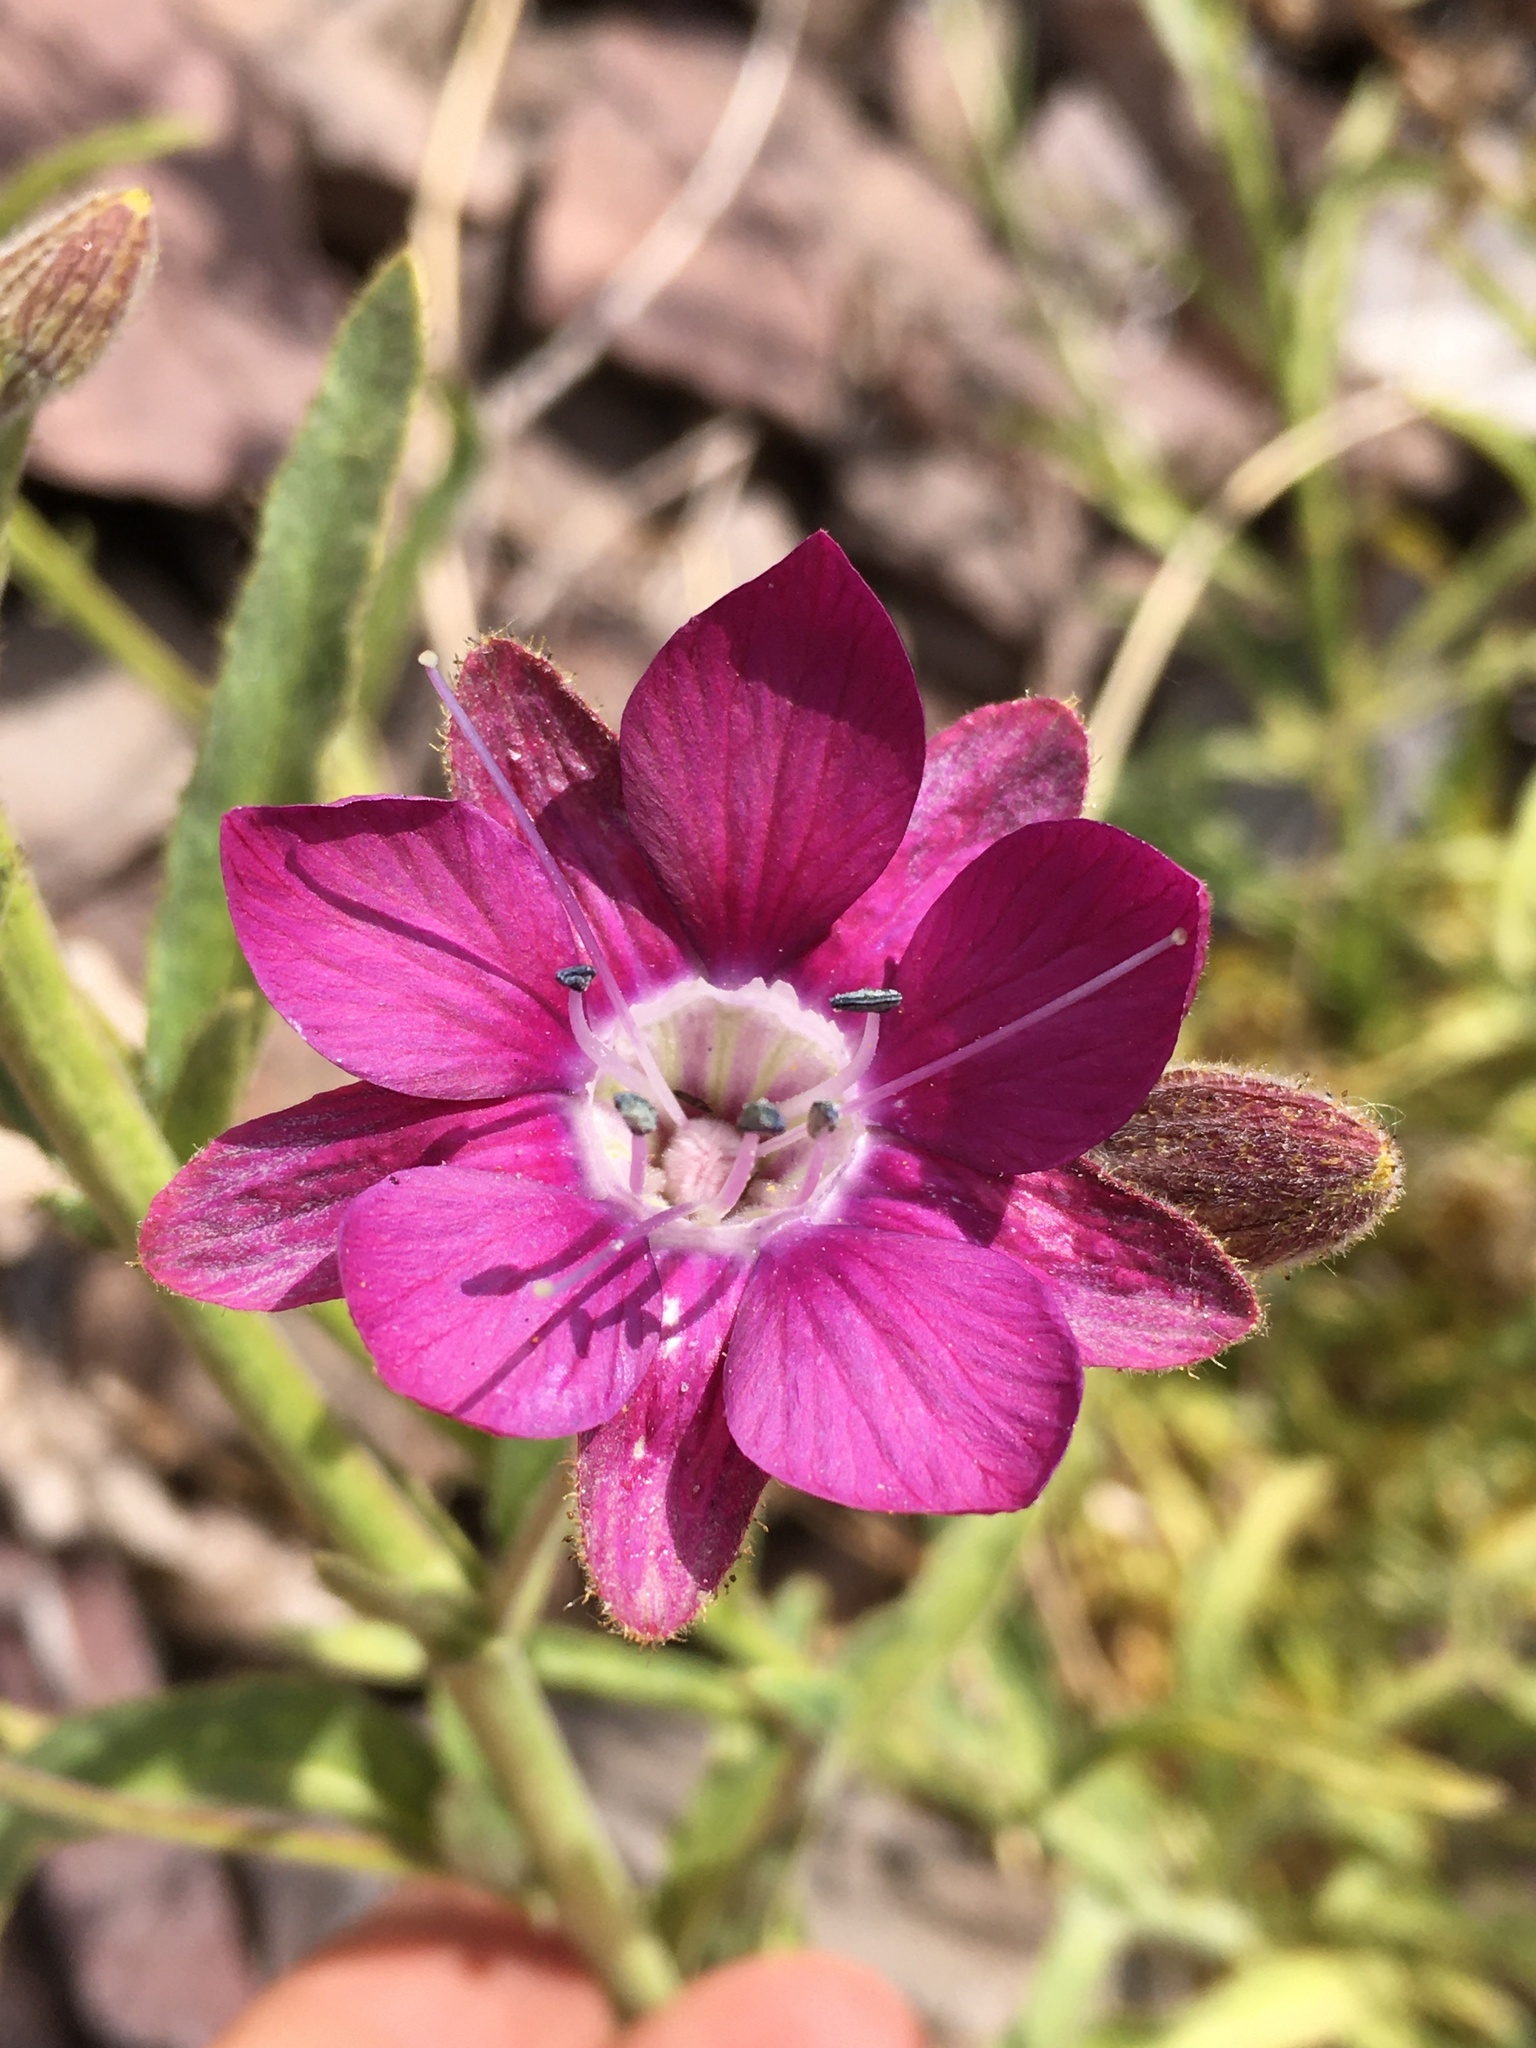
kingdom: Plantae
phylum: Tracheophyta
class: Magnoliopsida
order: Malpighiales
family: Malesherbiaceae
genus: Malesherbia
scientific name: Malesherbia linearifolia
